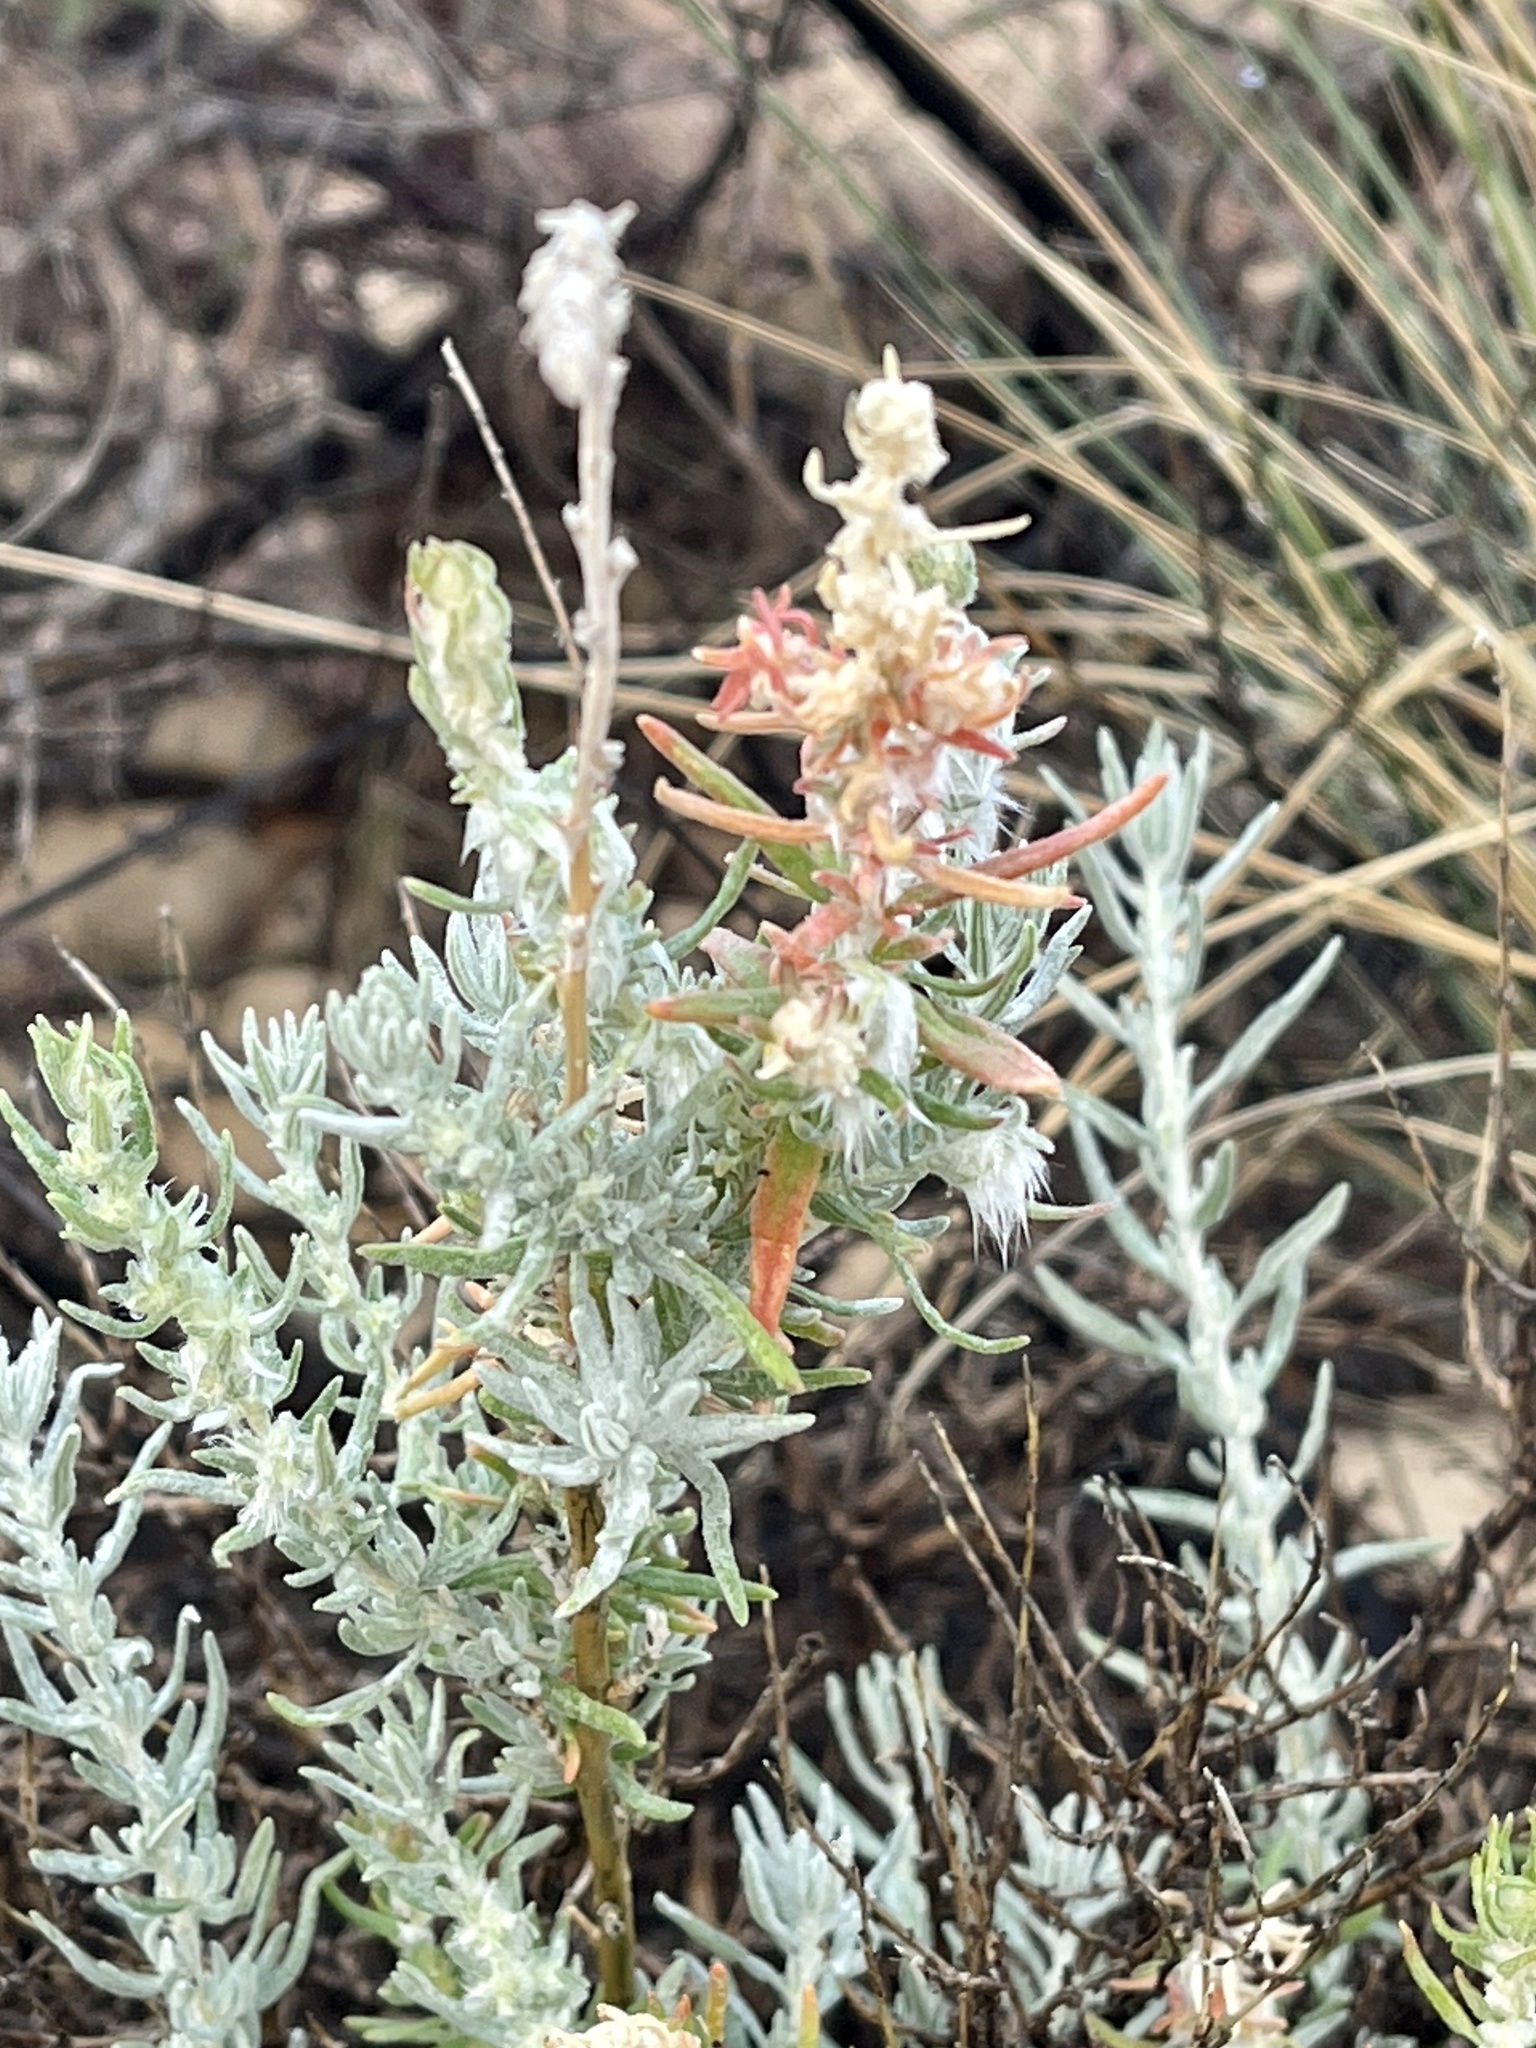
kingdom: Plantae
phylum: Tracheophyta
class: Magnoliopsida
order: Caryophyllales
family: Amaranthaceae
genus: Krascheninnikovia
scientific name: Krascheninnikovia lanata
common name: Winterfat
